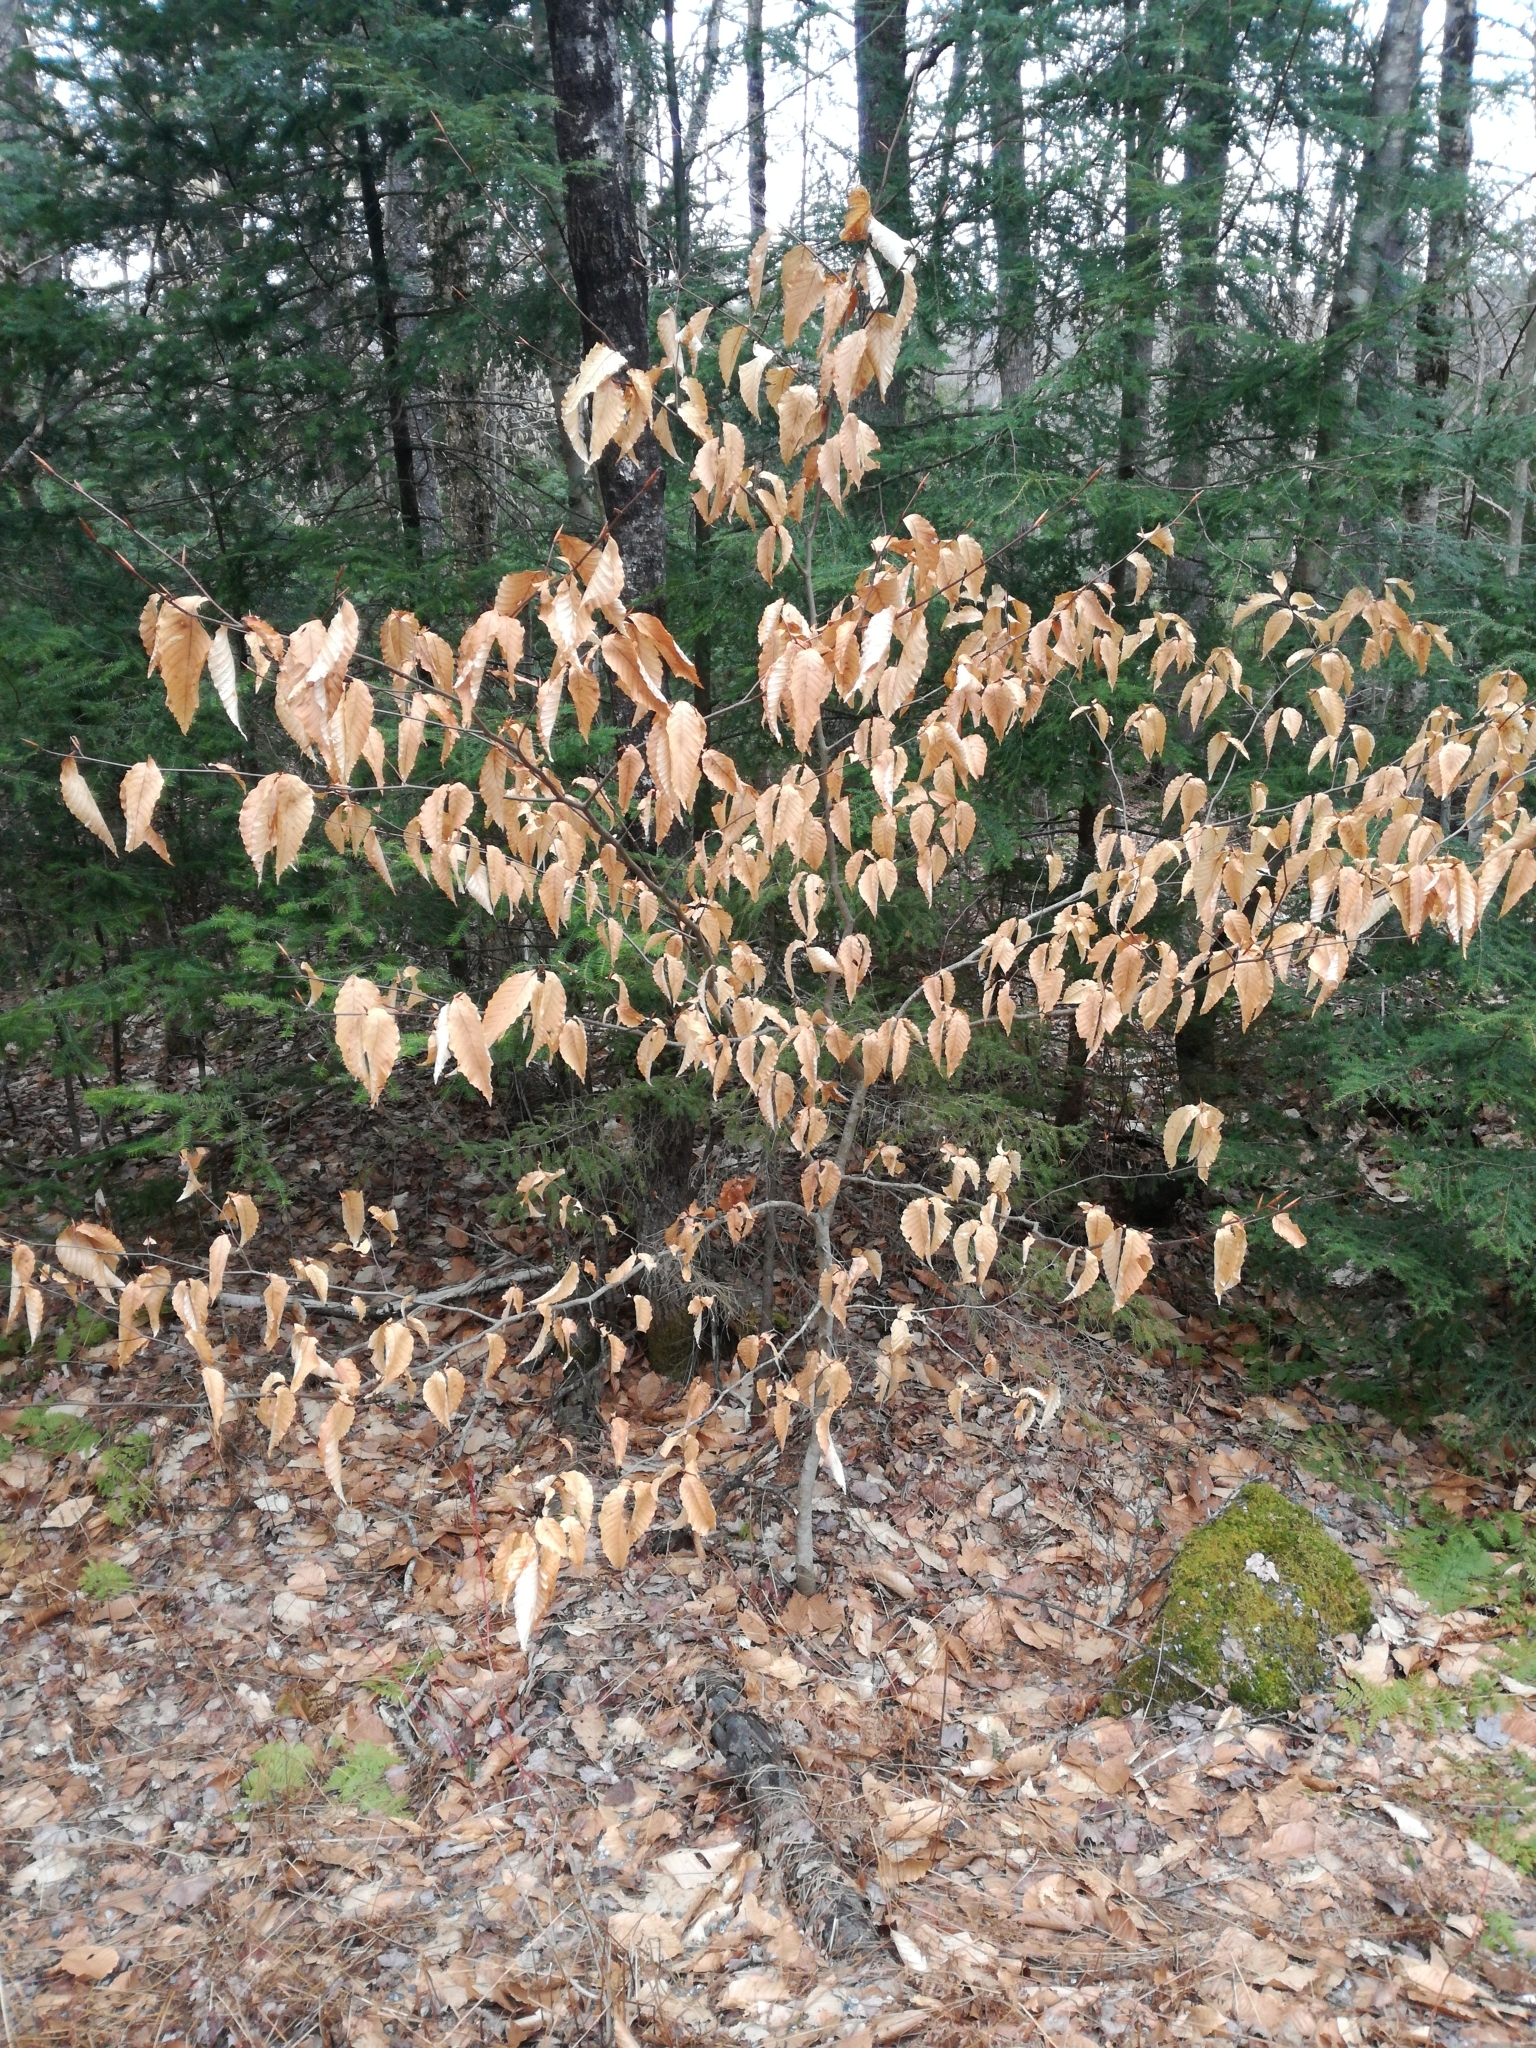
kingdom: Plantae
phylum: Tracheophyta
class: Magnoliopsida
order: Fagales
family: Fagaceae
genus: Fagus
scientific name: Fagus grandifolia
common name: American beech
